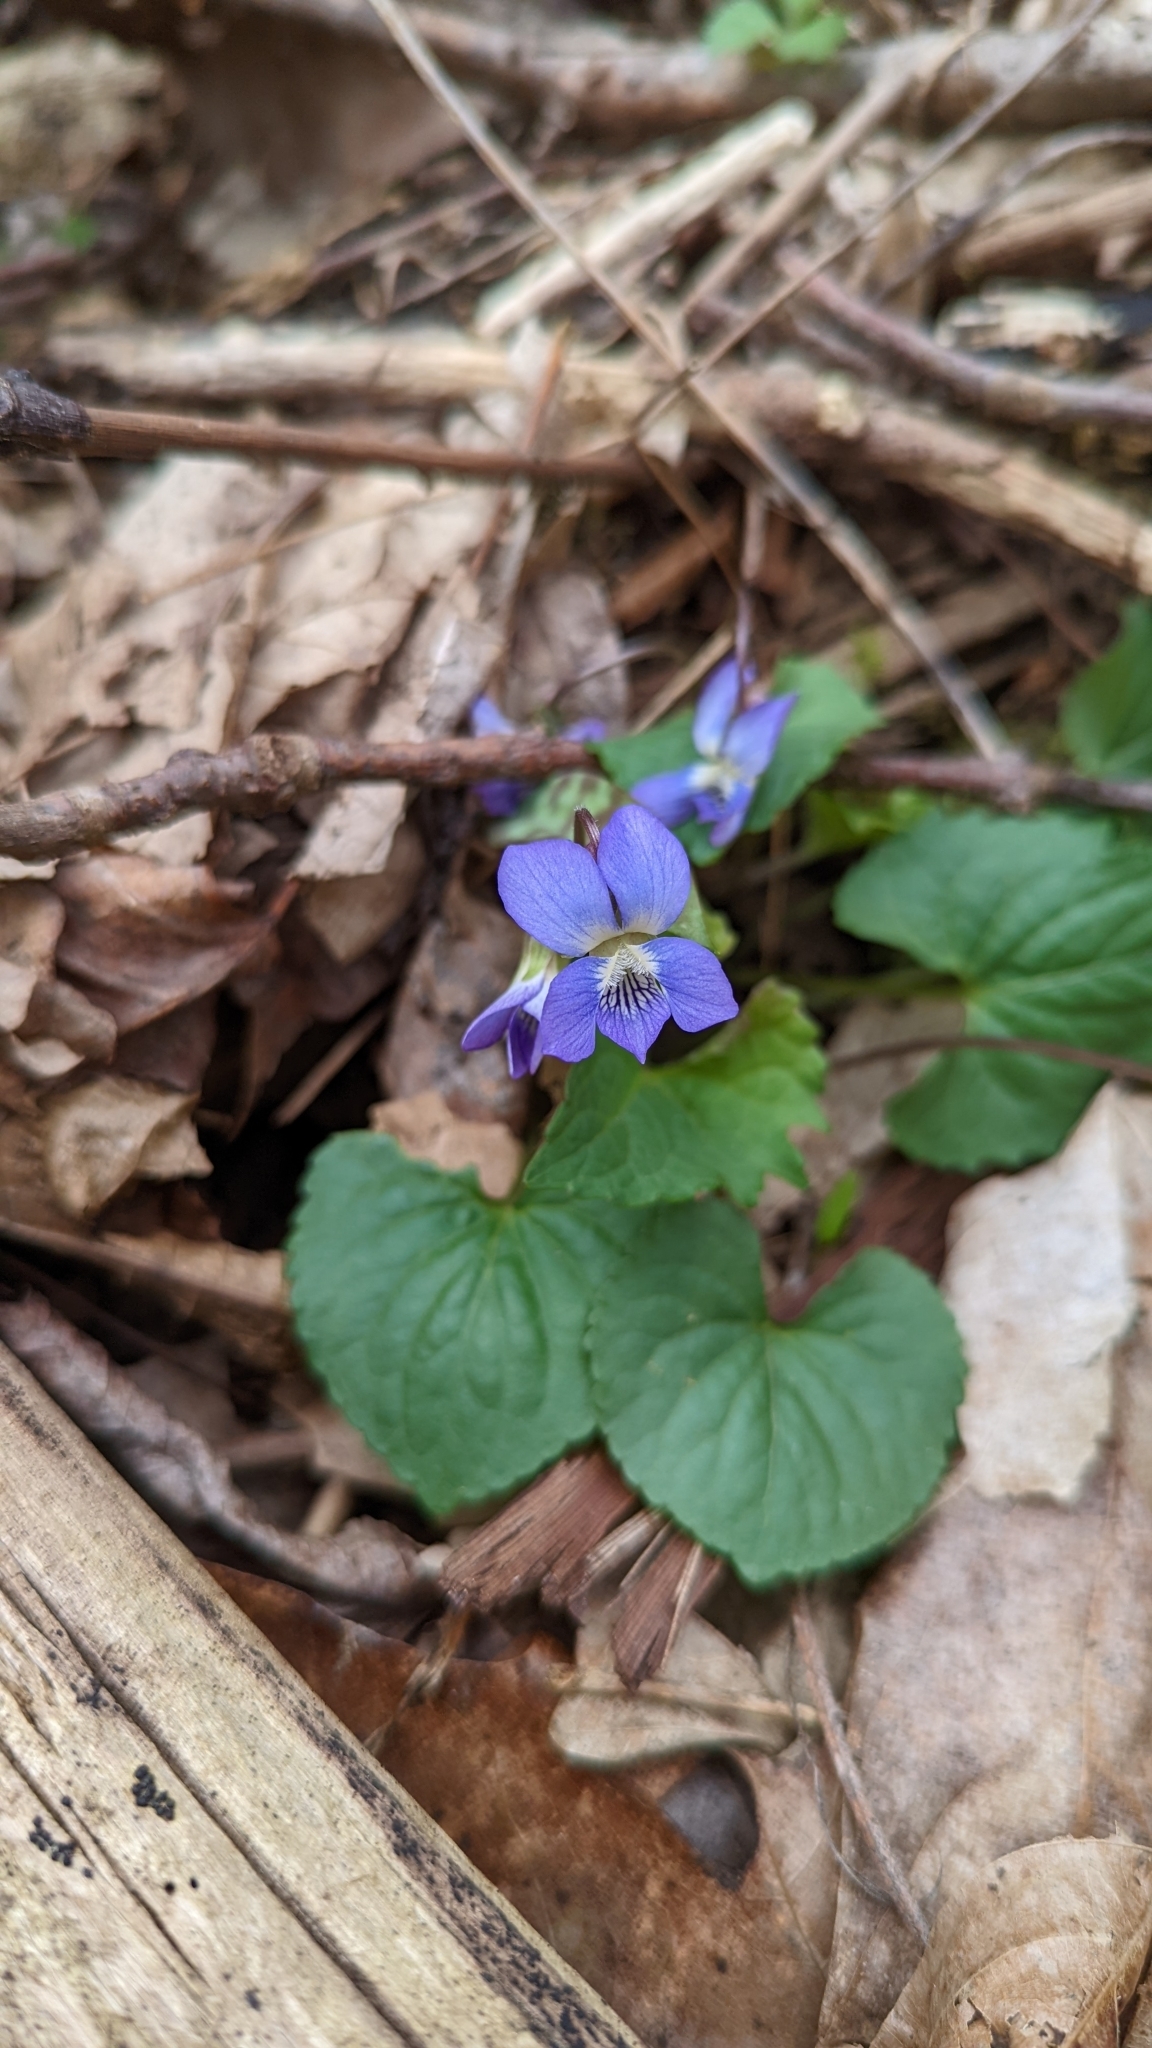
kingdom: Plantae
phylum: Tracheophyta
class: Magnoliopsida
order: Malpighiales
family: Violaceae
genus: Viola
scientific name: Viola palmata
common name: Early blue violet
